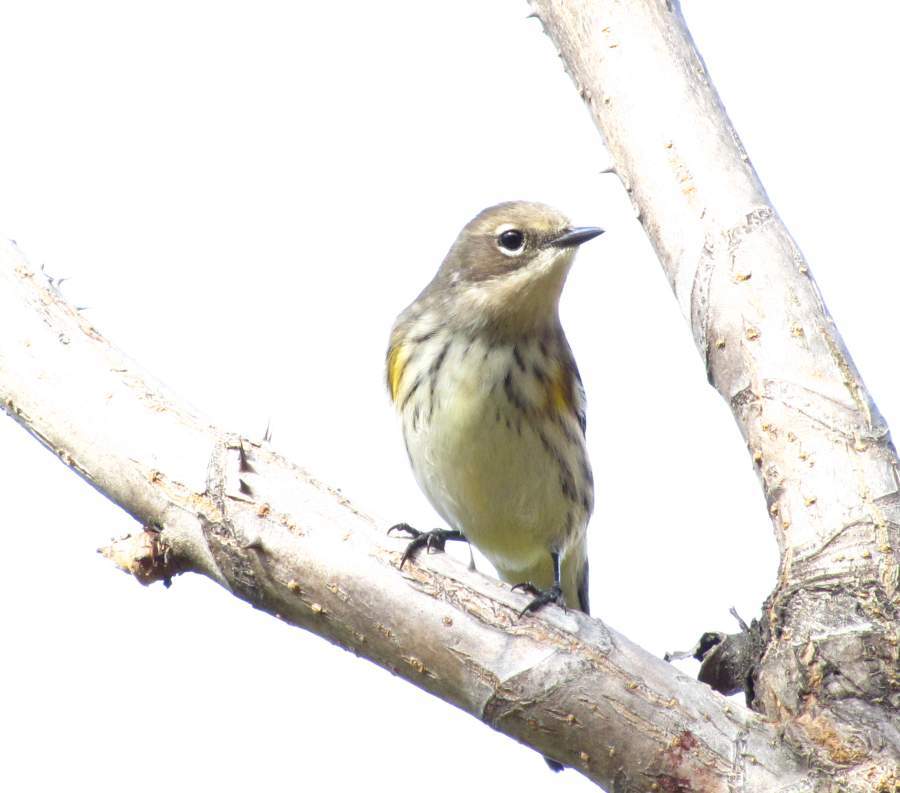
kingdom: Animalia
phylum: Chordata
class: Aves
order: Passeriformes
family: Parulidae
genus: Setophaga
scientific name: Setophaga coronata
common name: Myrtle warbler
